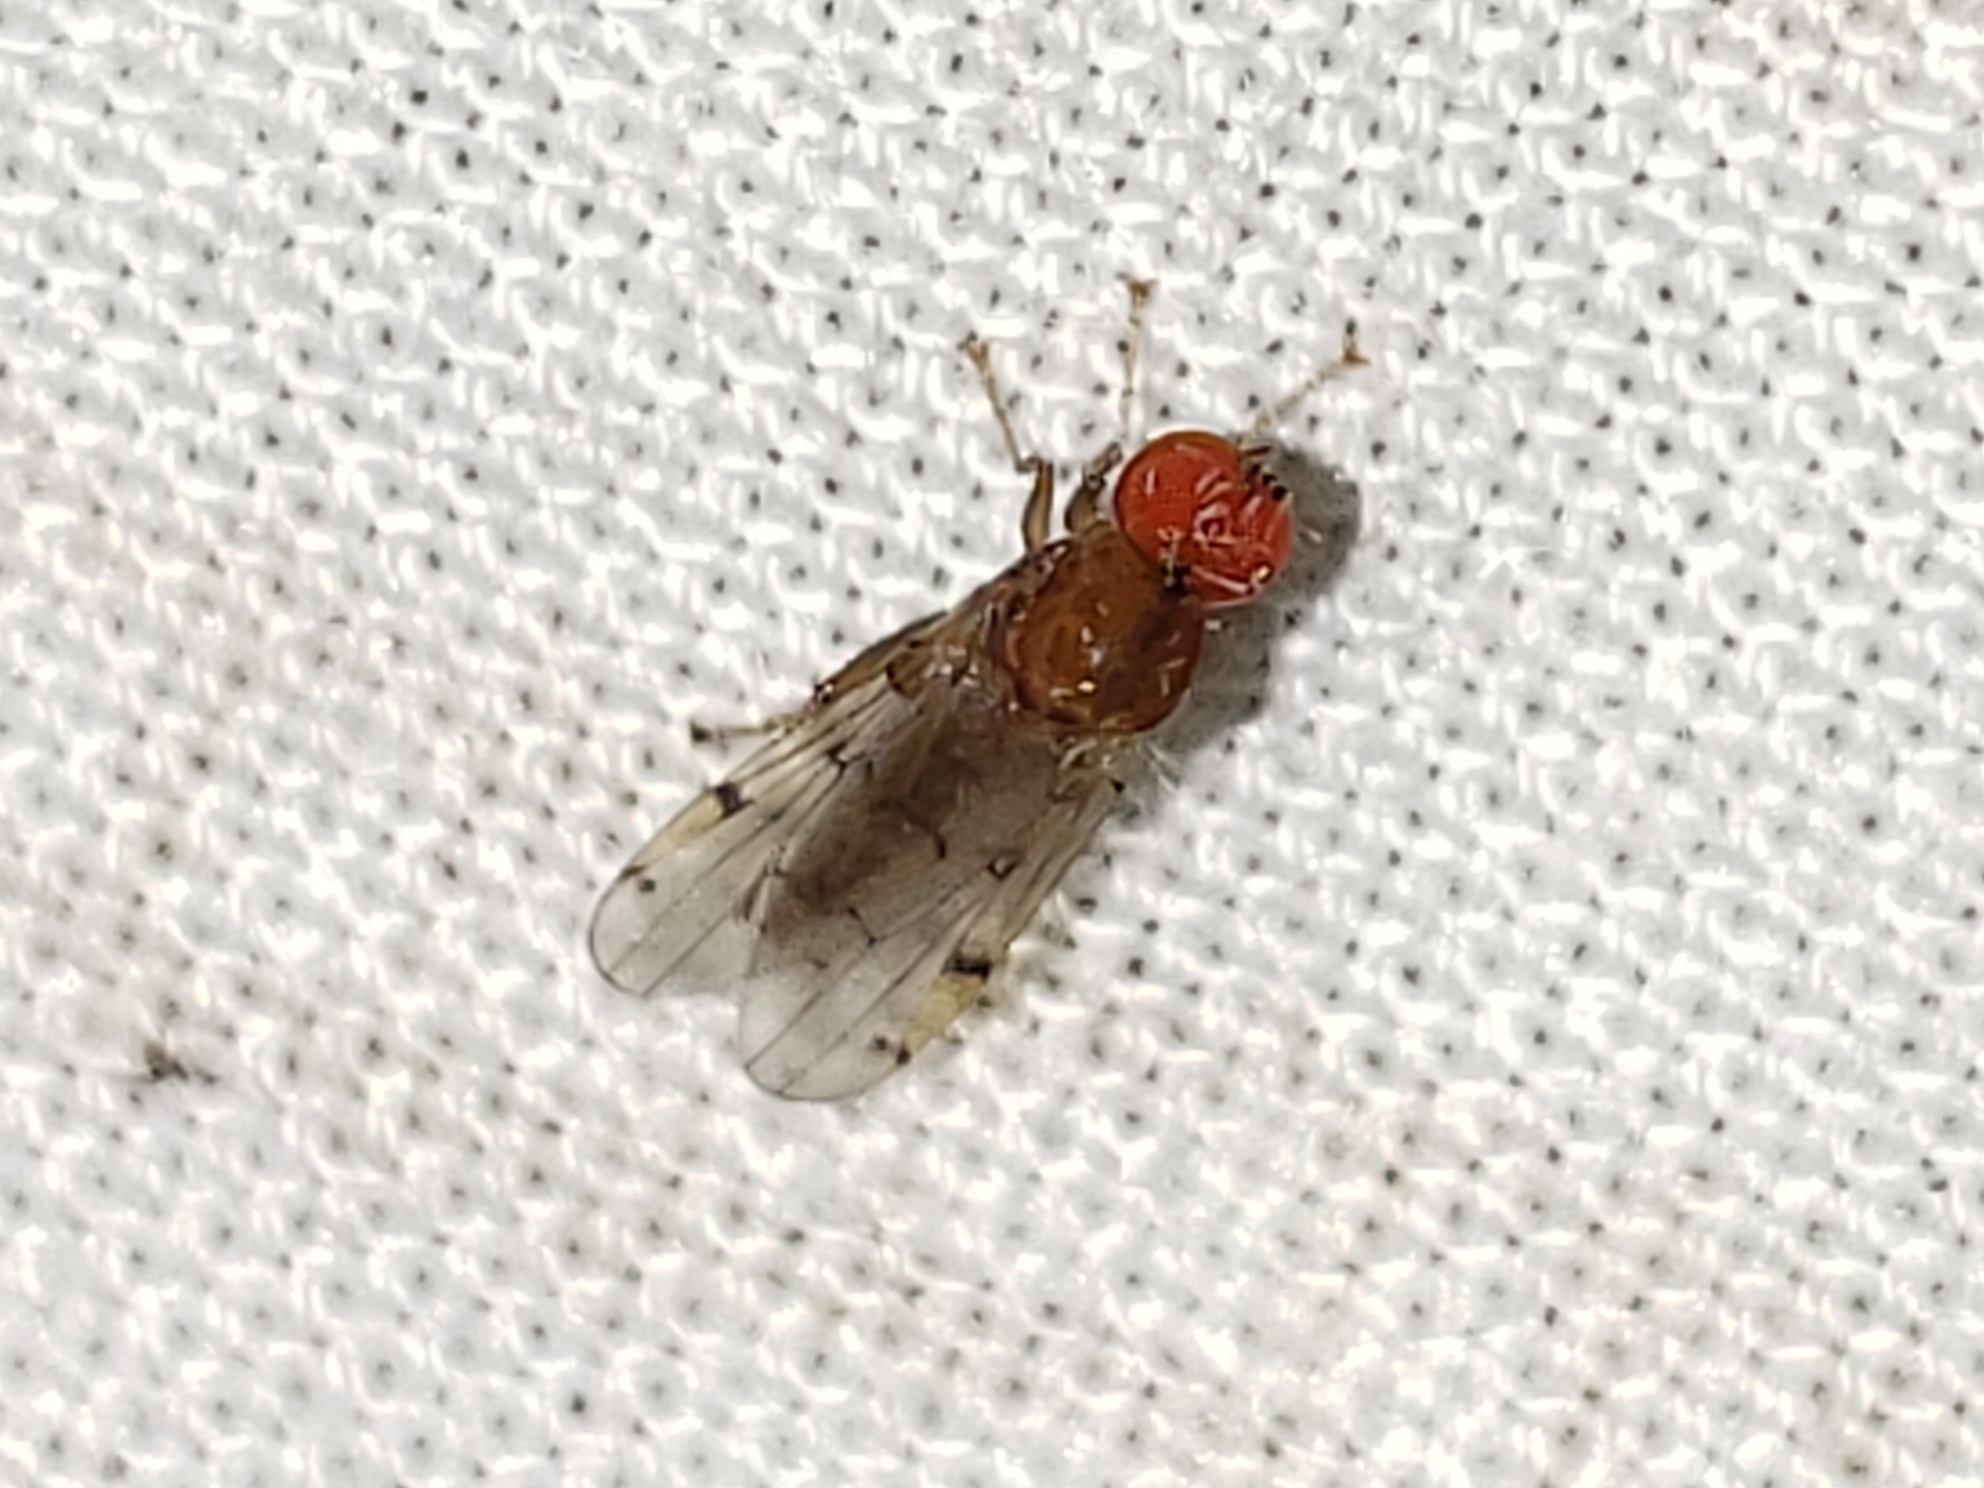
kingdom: Animalia
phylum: Arthropoda
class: Insecta
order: Diptera
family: Hybotidae
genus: Syneches
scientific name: Syneches simplex
